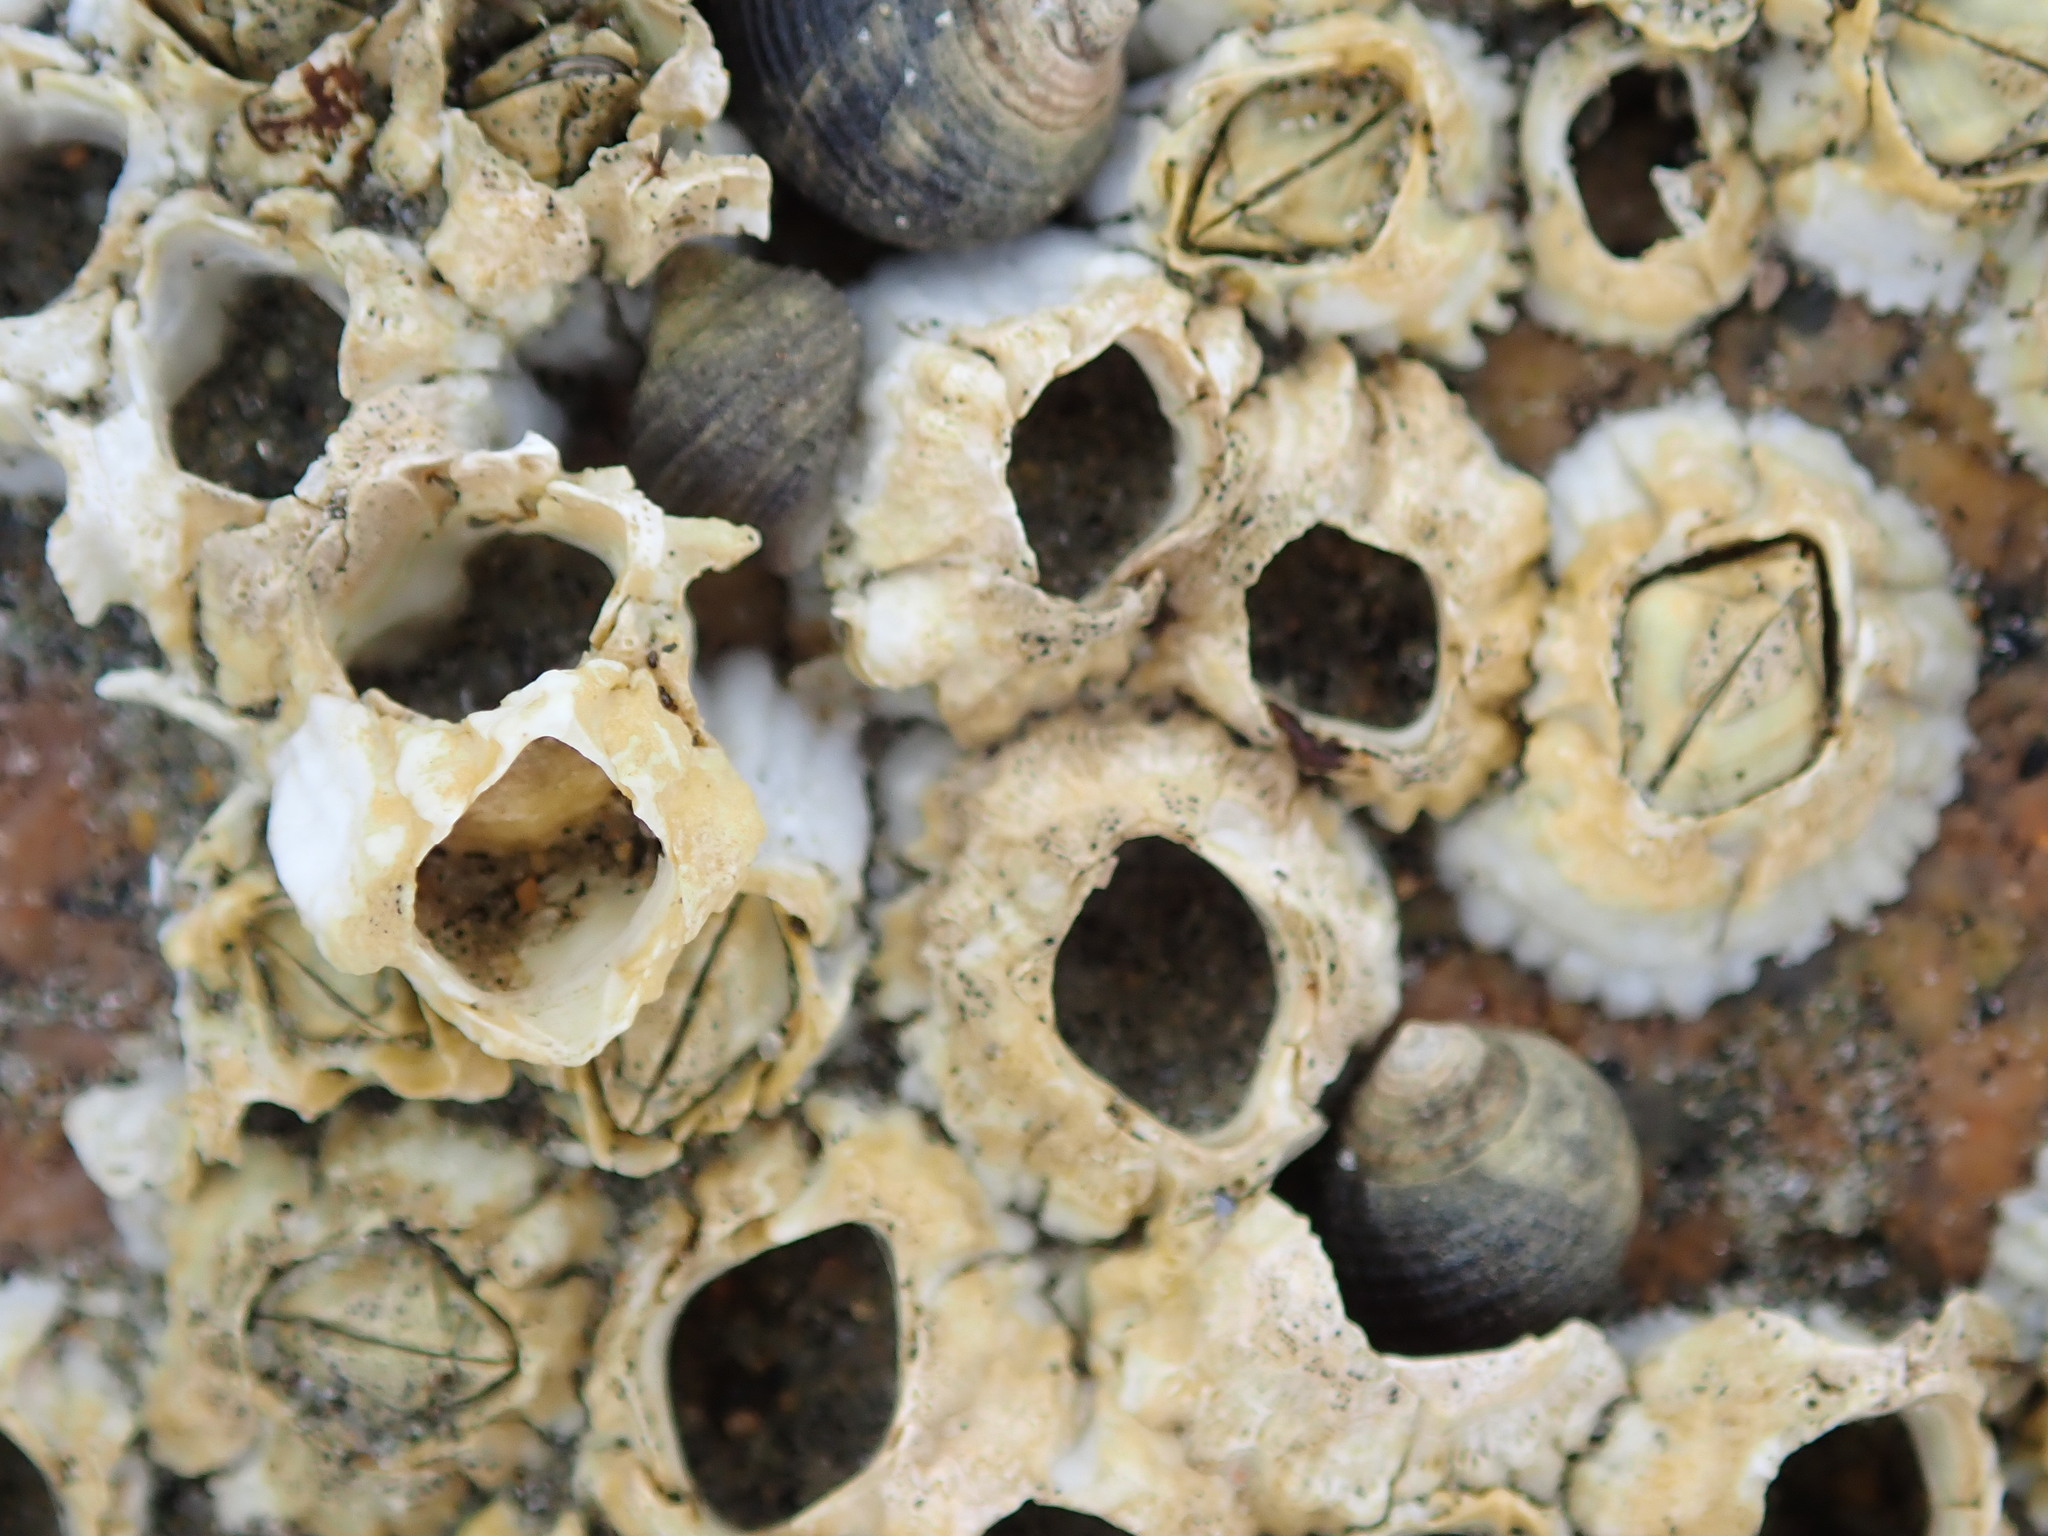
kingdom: Animalia
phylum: Arthropoda
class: Maxillopoda
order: Sessilia
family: Archaeobalanidae
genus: Semibalanus
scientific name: Semibalanus balanoides
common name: Acorn barnacle
